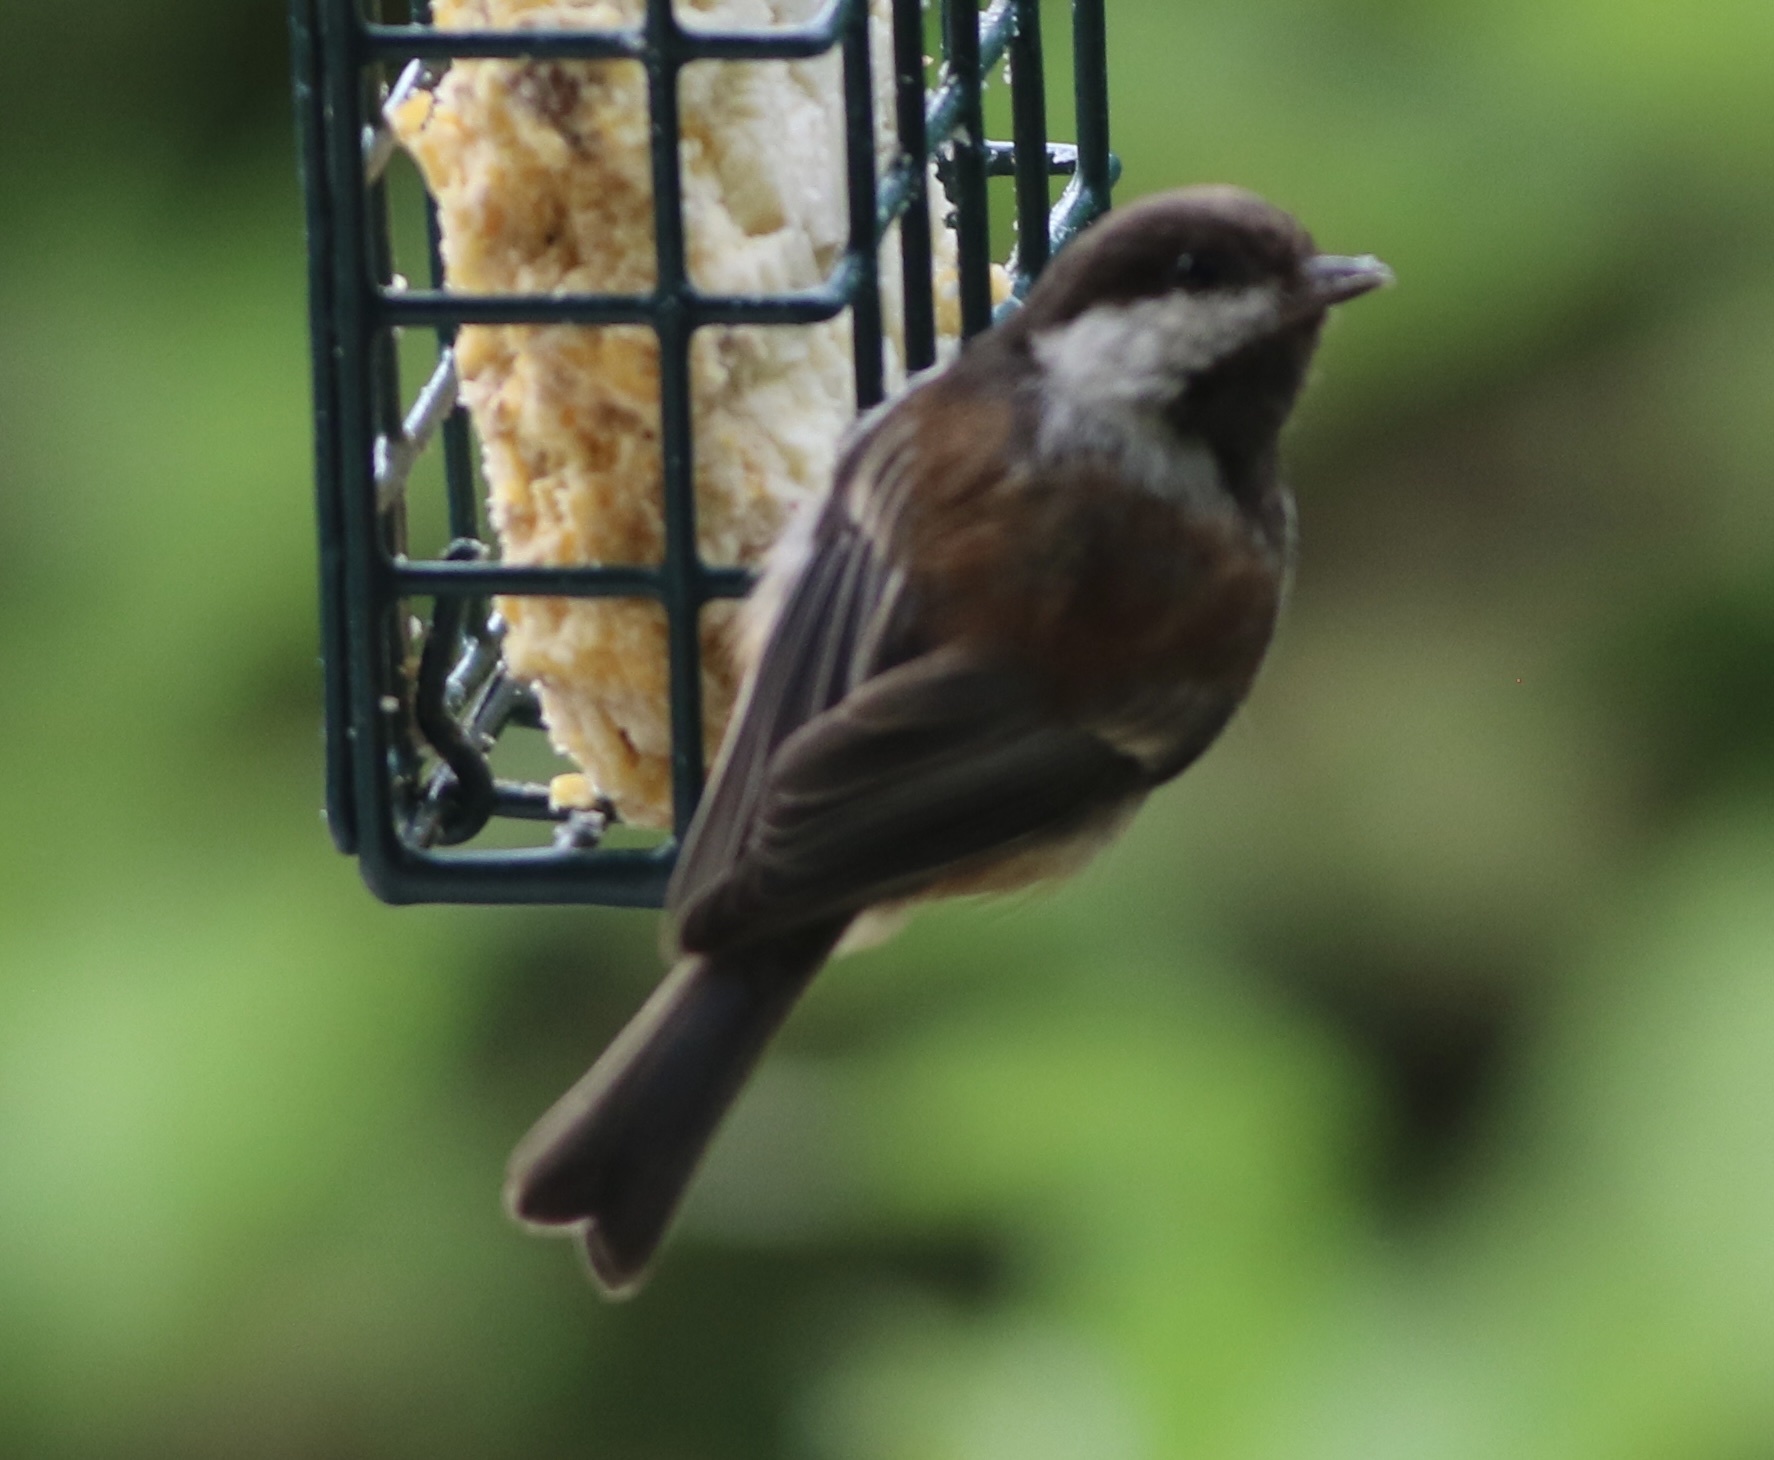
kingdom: Animalia
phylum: Chordata
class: Aves
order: Passeriformes
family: Paridae
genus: Poecile
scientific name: Poecile rufescens
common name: Chestnut-backed chickadee
